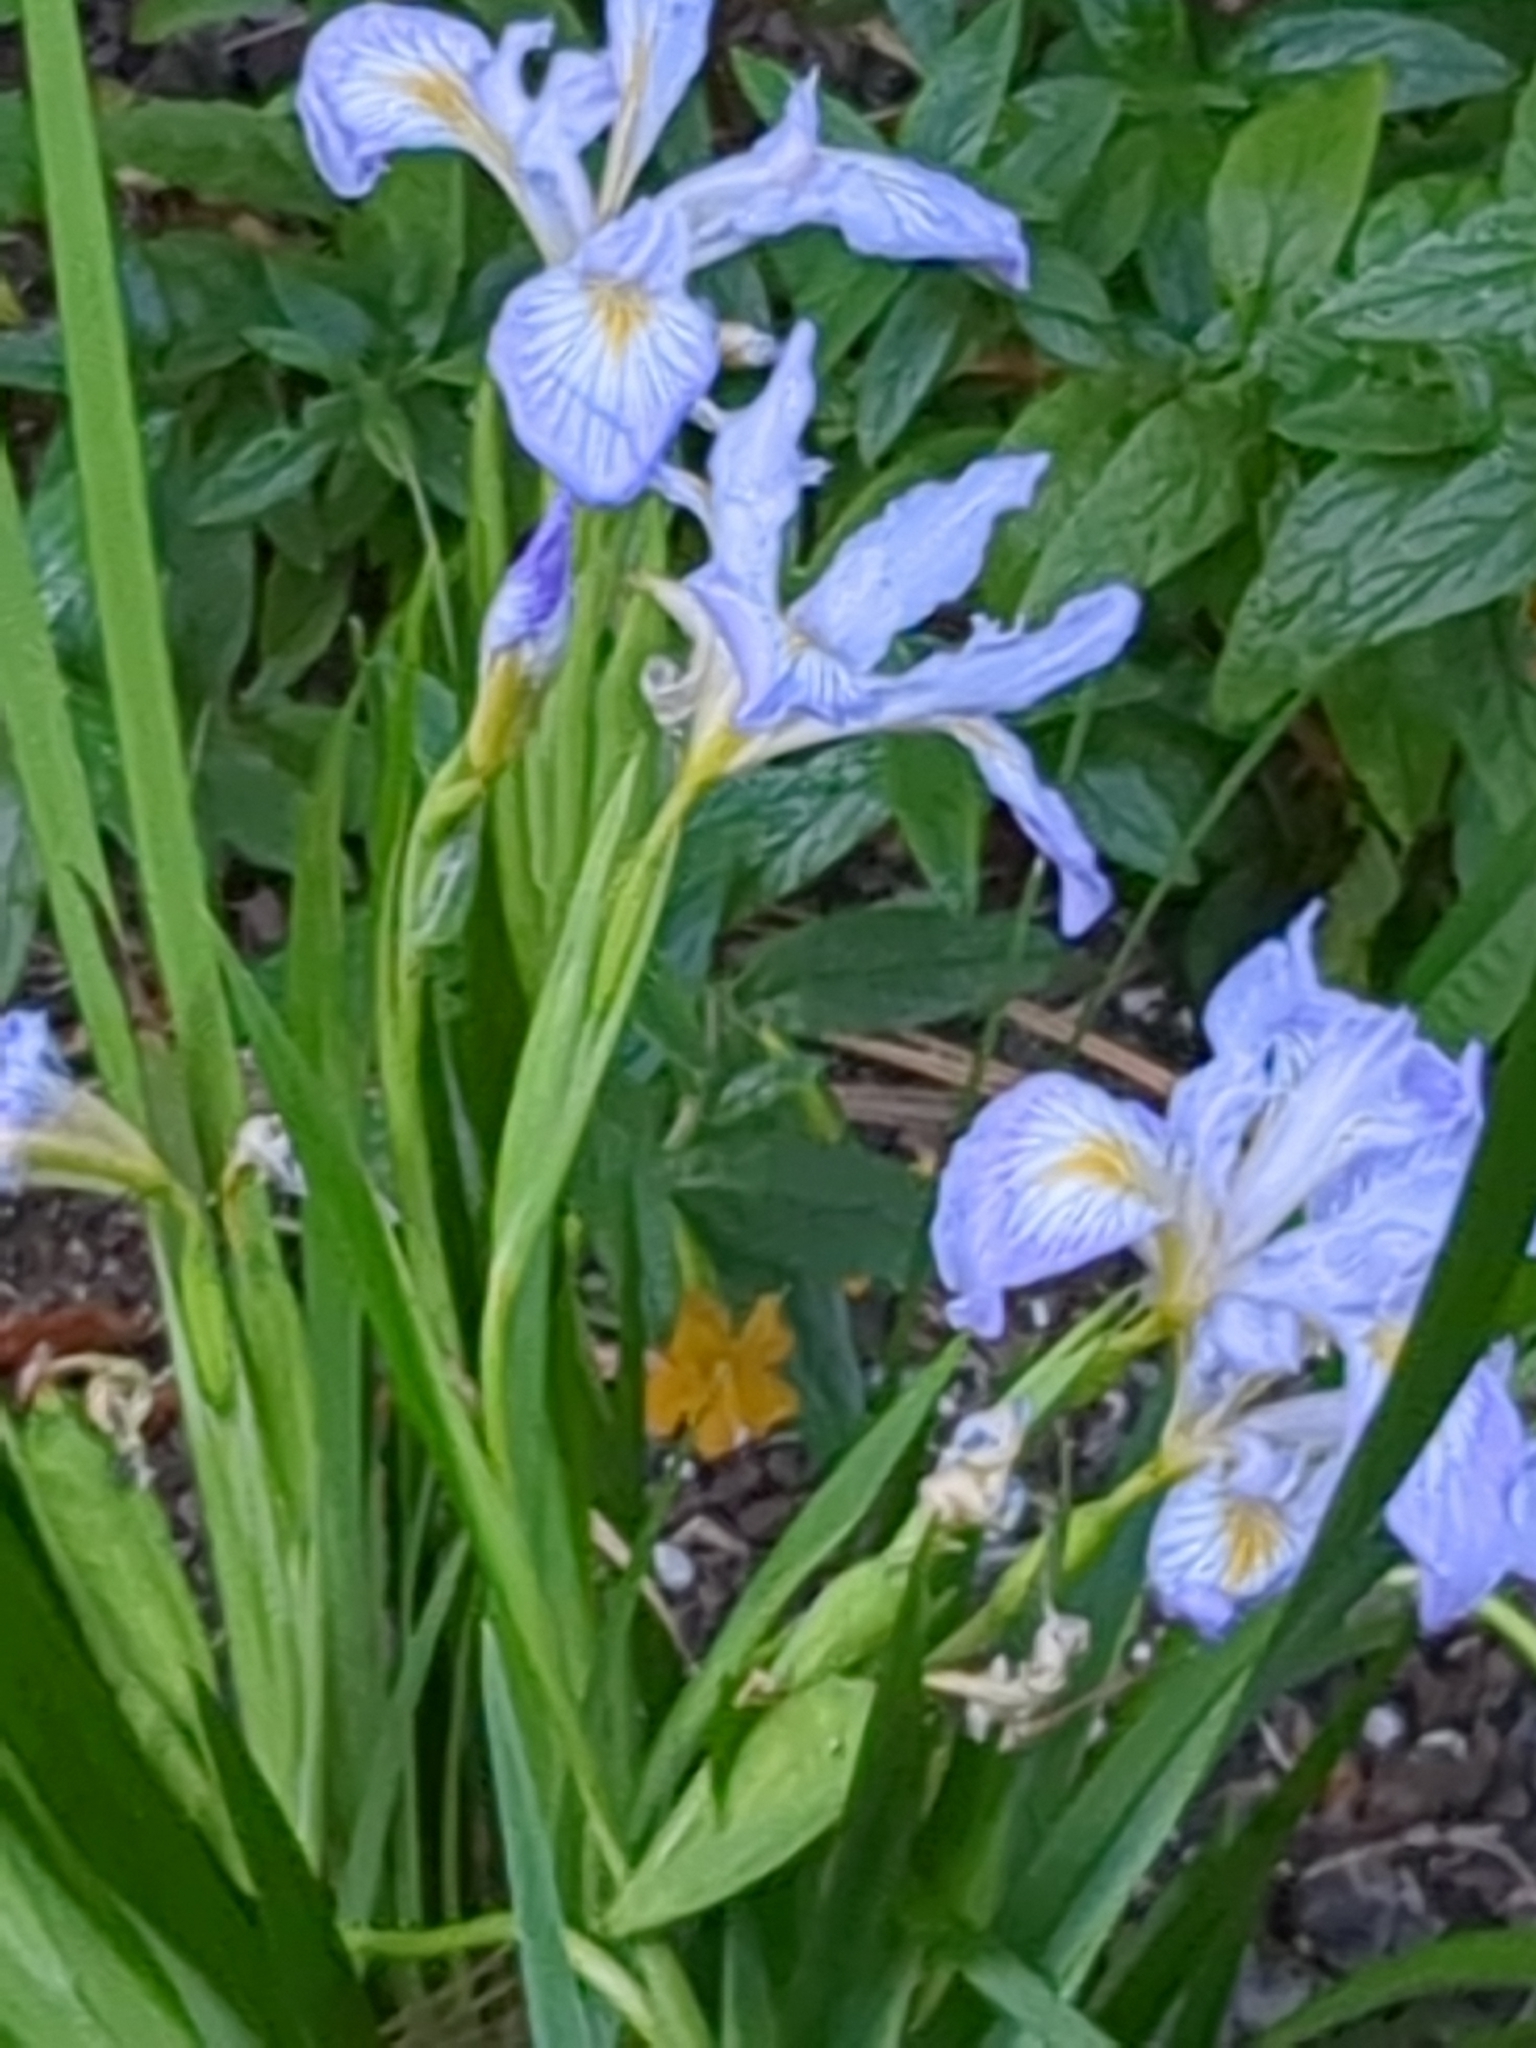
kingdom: Plantae
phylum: Tracheophyta
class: Liliopsida
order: Asparagales
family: Iridaceae
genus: Iris
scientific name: Iris douglasiana
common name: Marin iris
